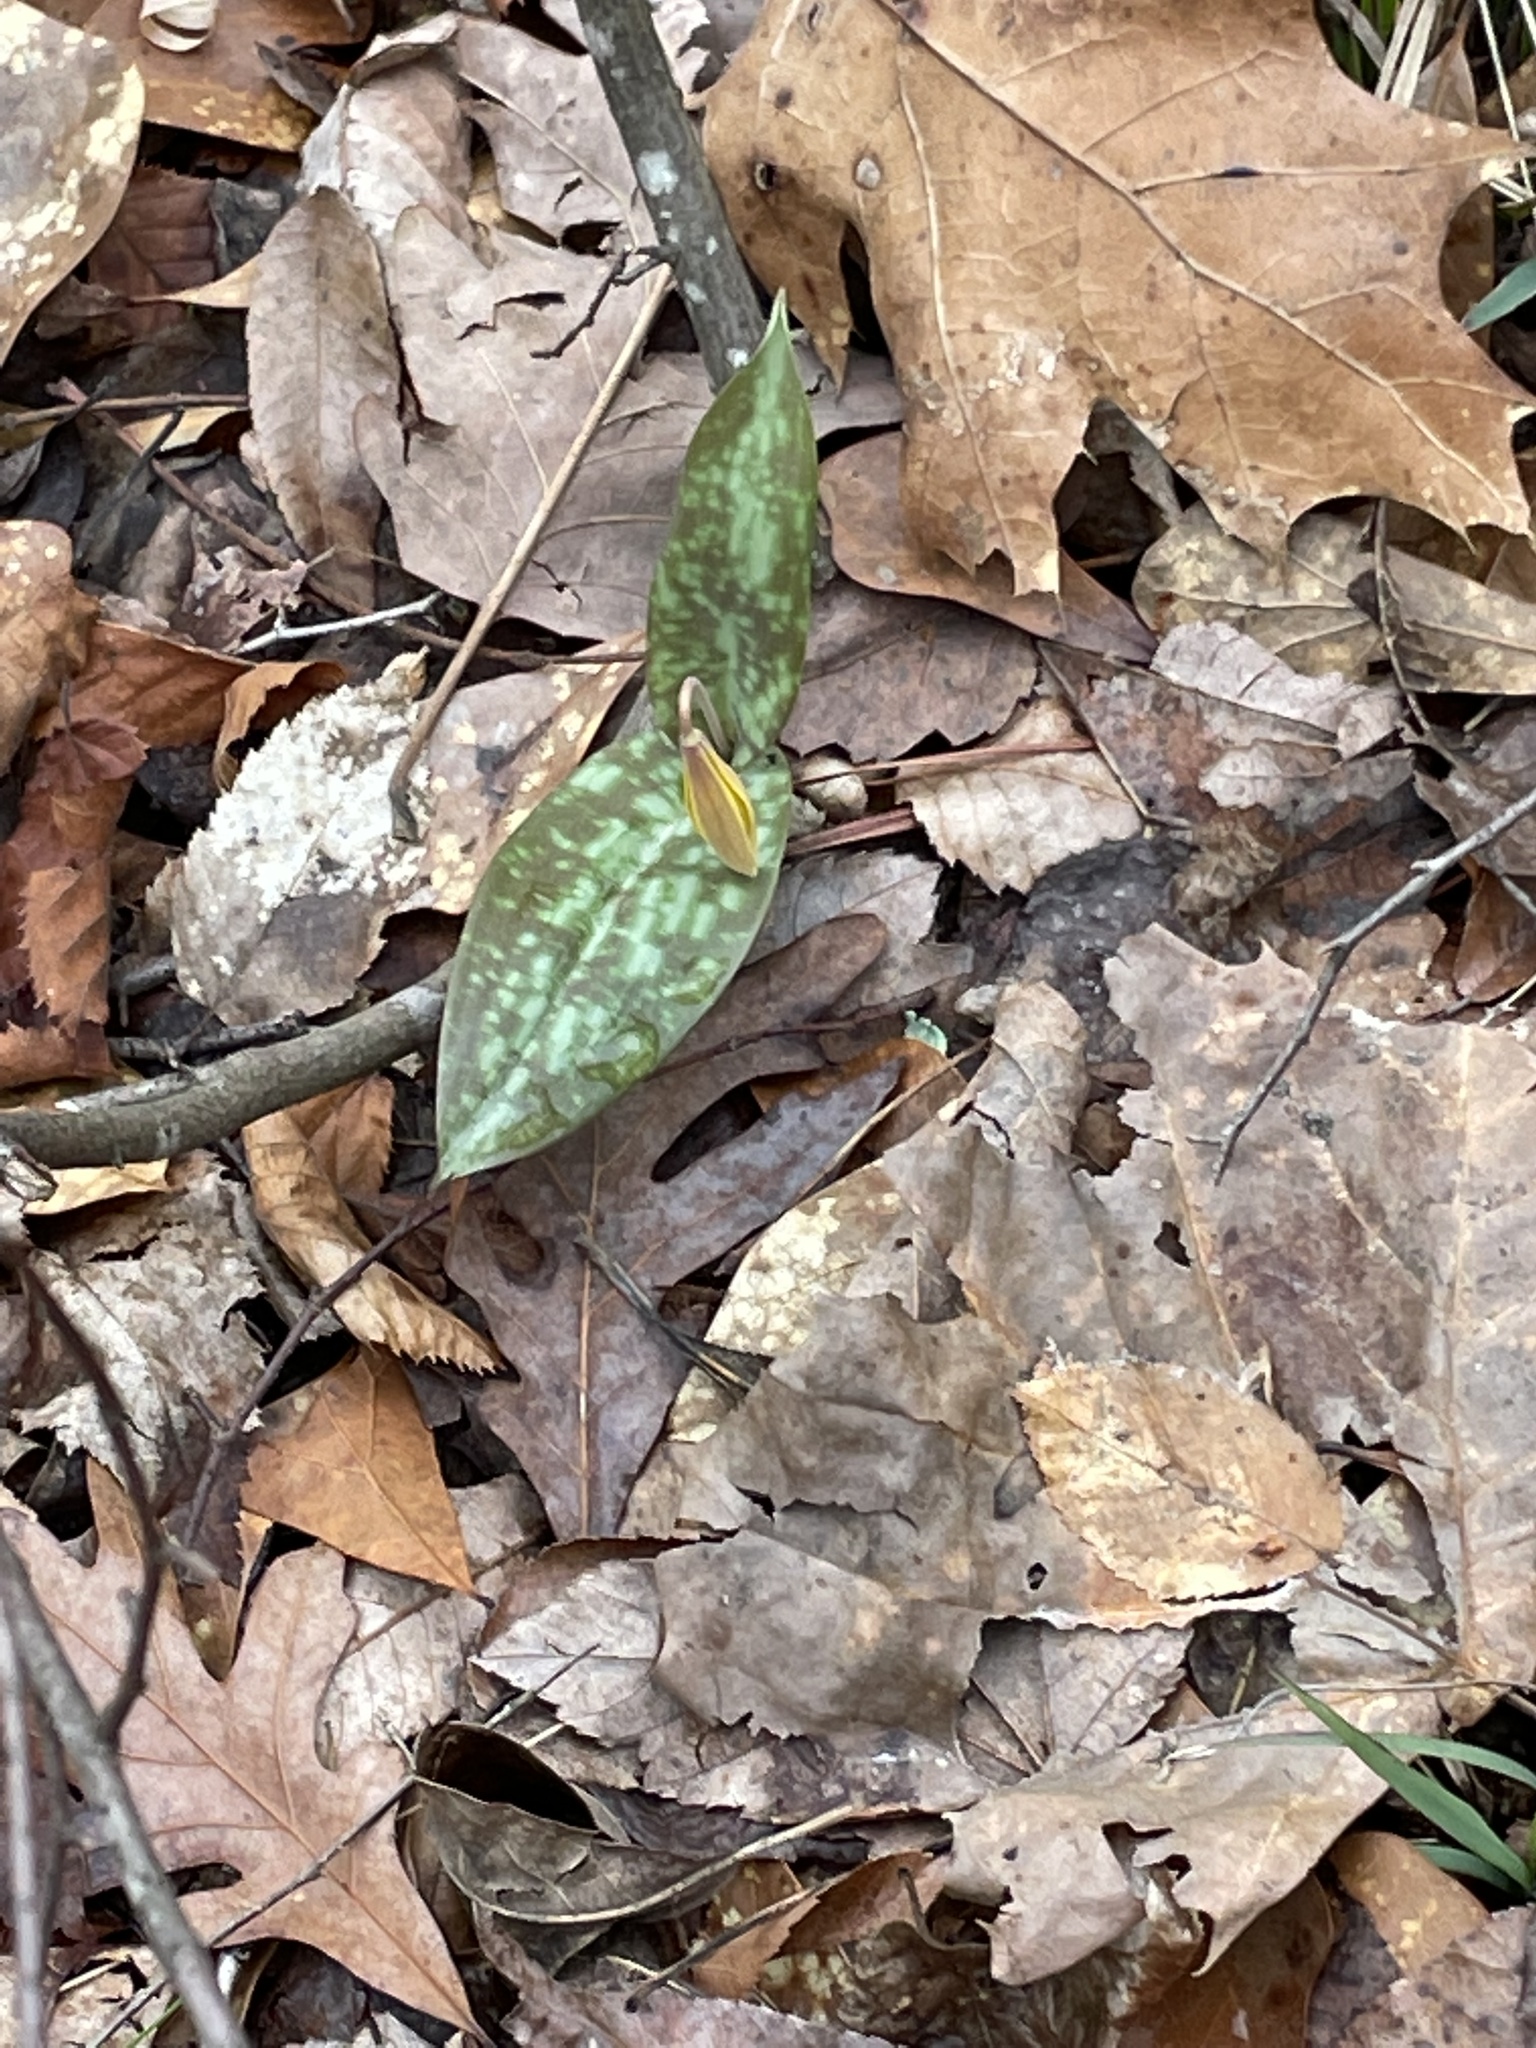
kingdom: Plantae
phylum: Tracheophyta
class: Liliopsida
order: Liliales
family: Liliaceae
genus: Erythronium
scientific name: Erythronium umbilicatum
